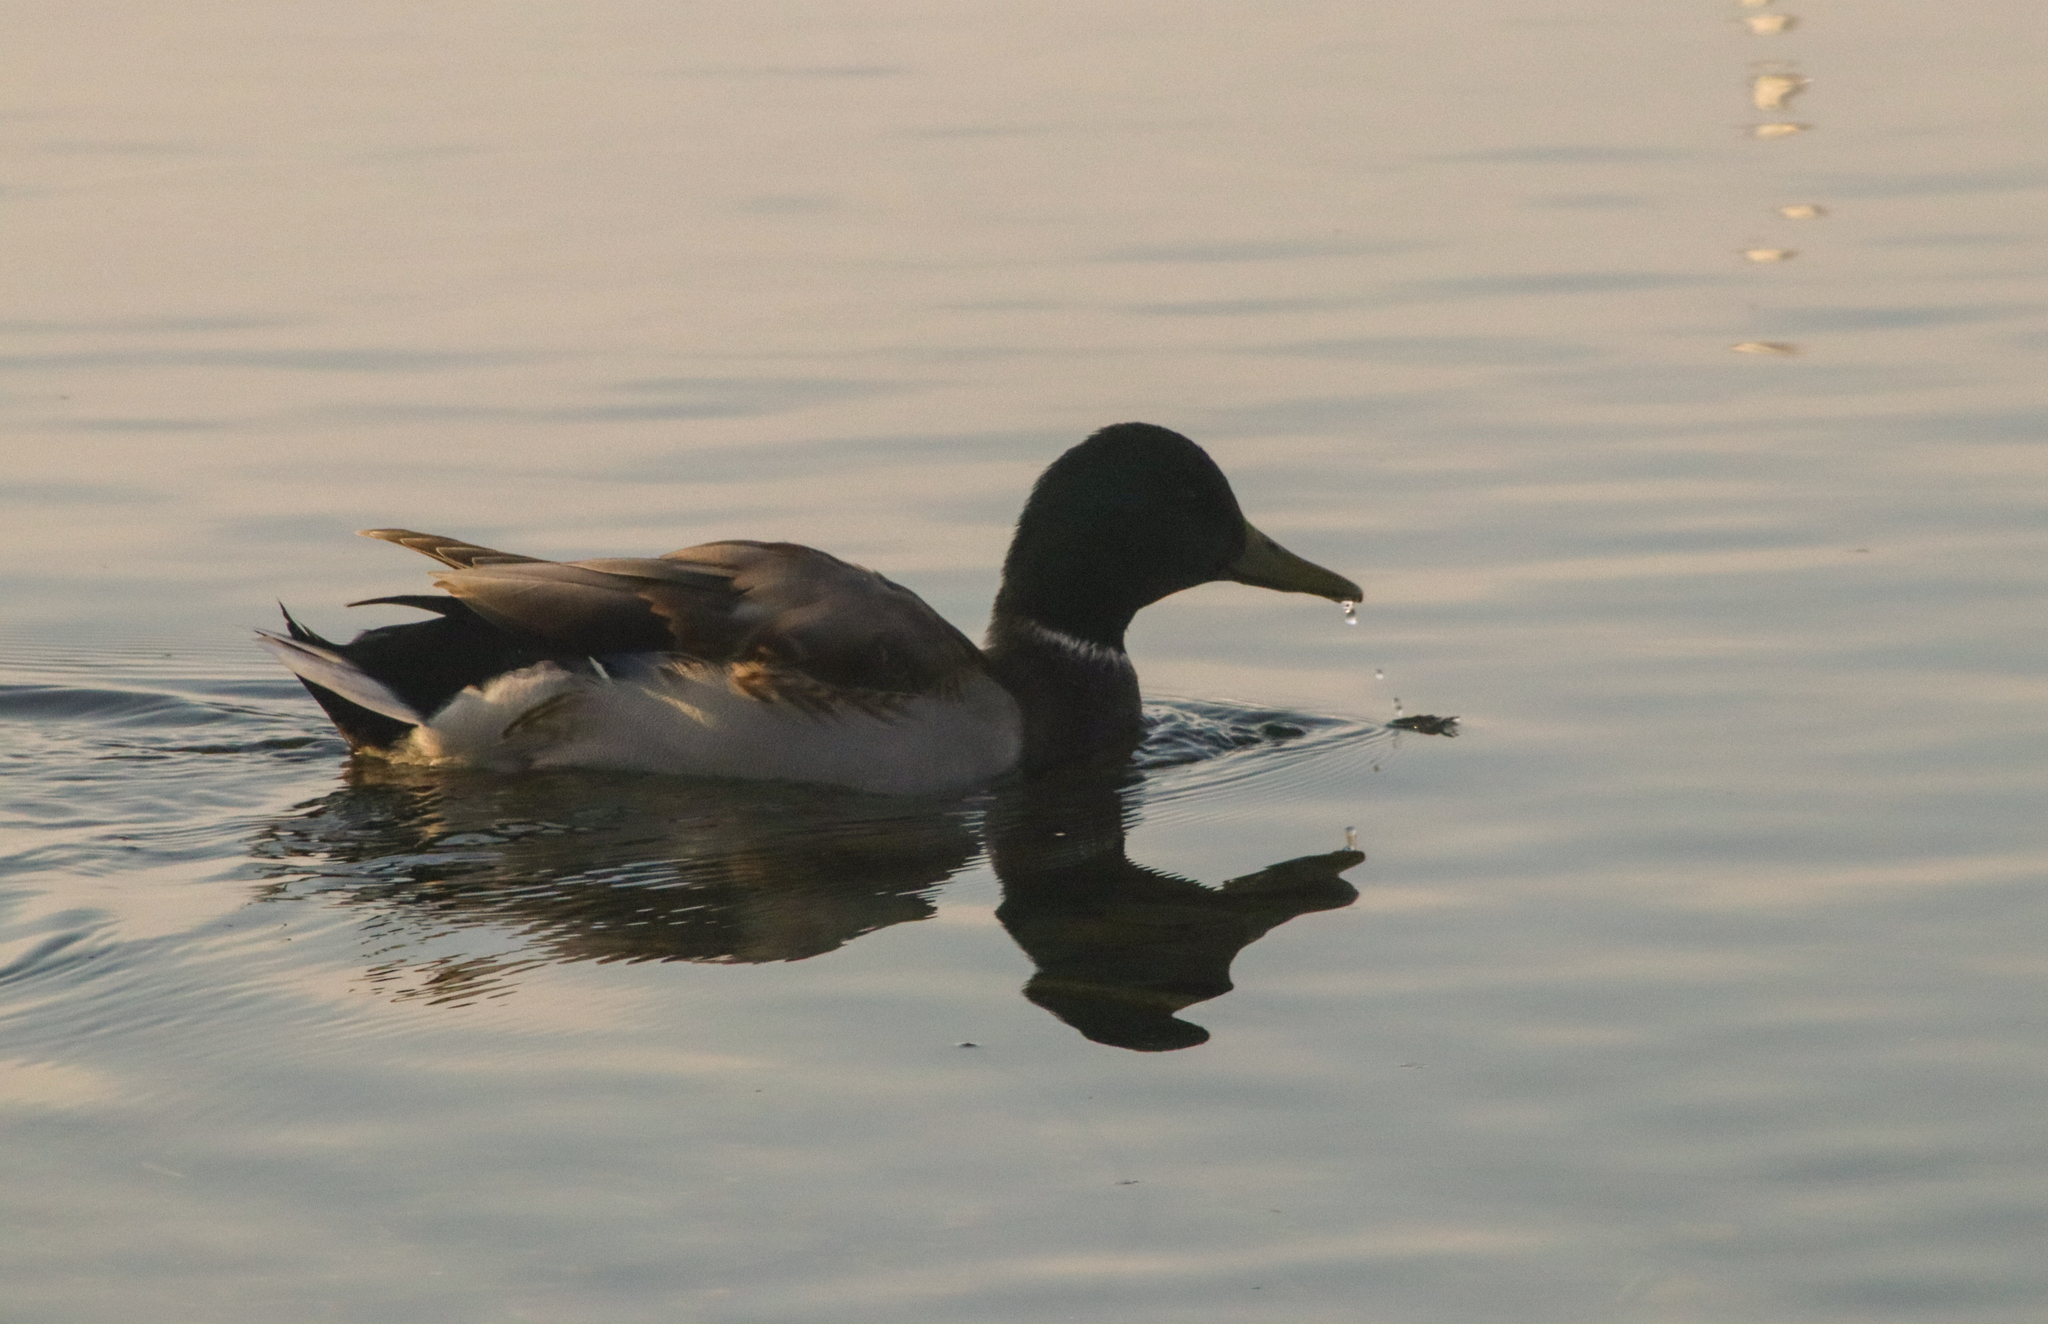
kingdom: Animalia
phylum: Chordata
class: Aves
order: Anseriformes
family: Anatidae
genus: Anas
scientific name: Anas platyrhynchos
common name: Mallard
